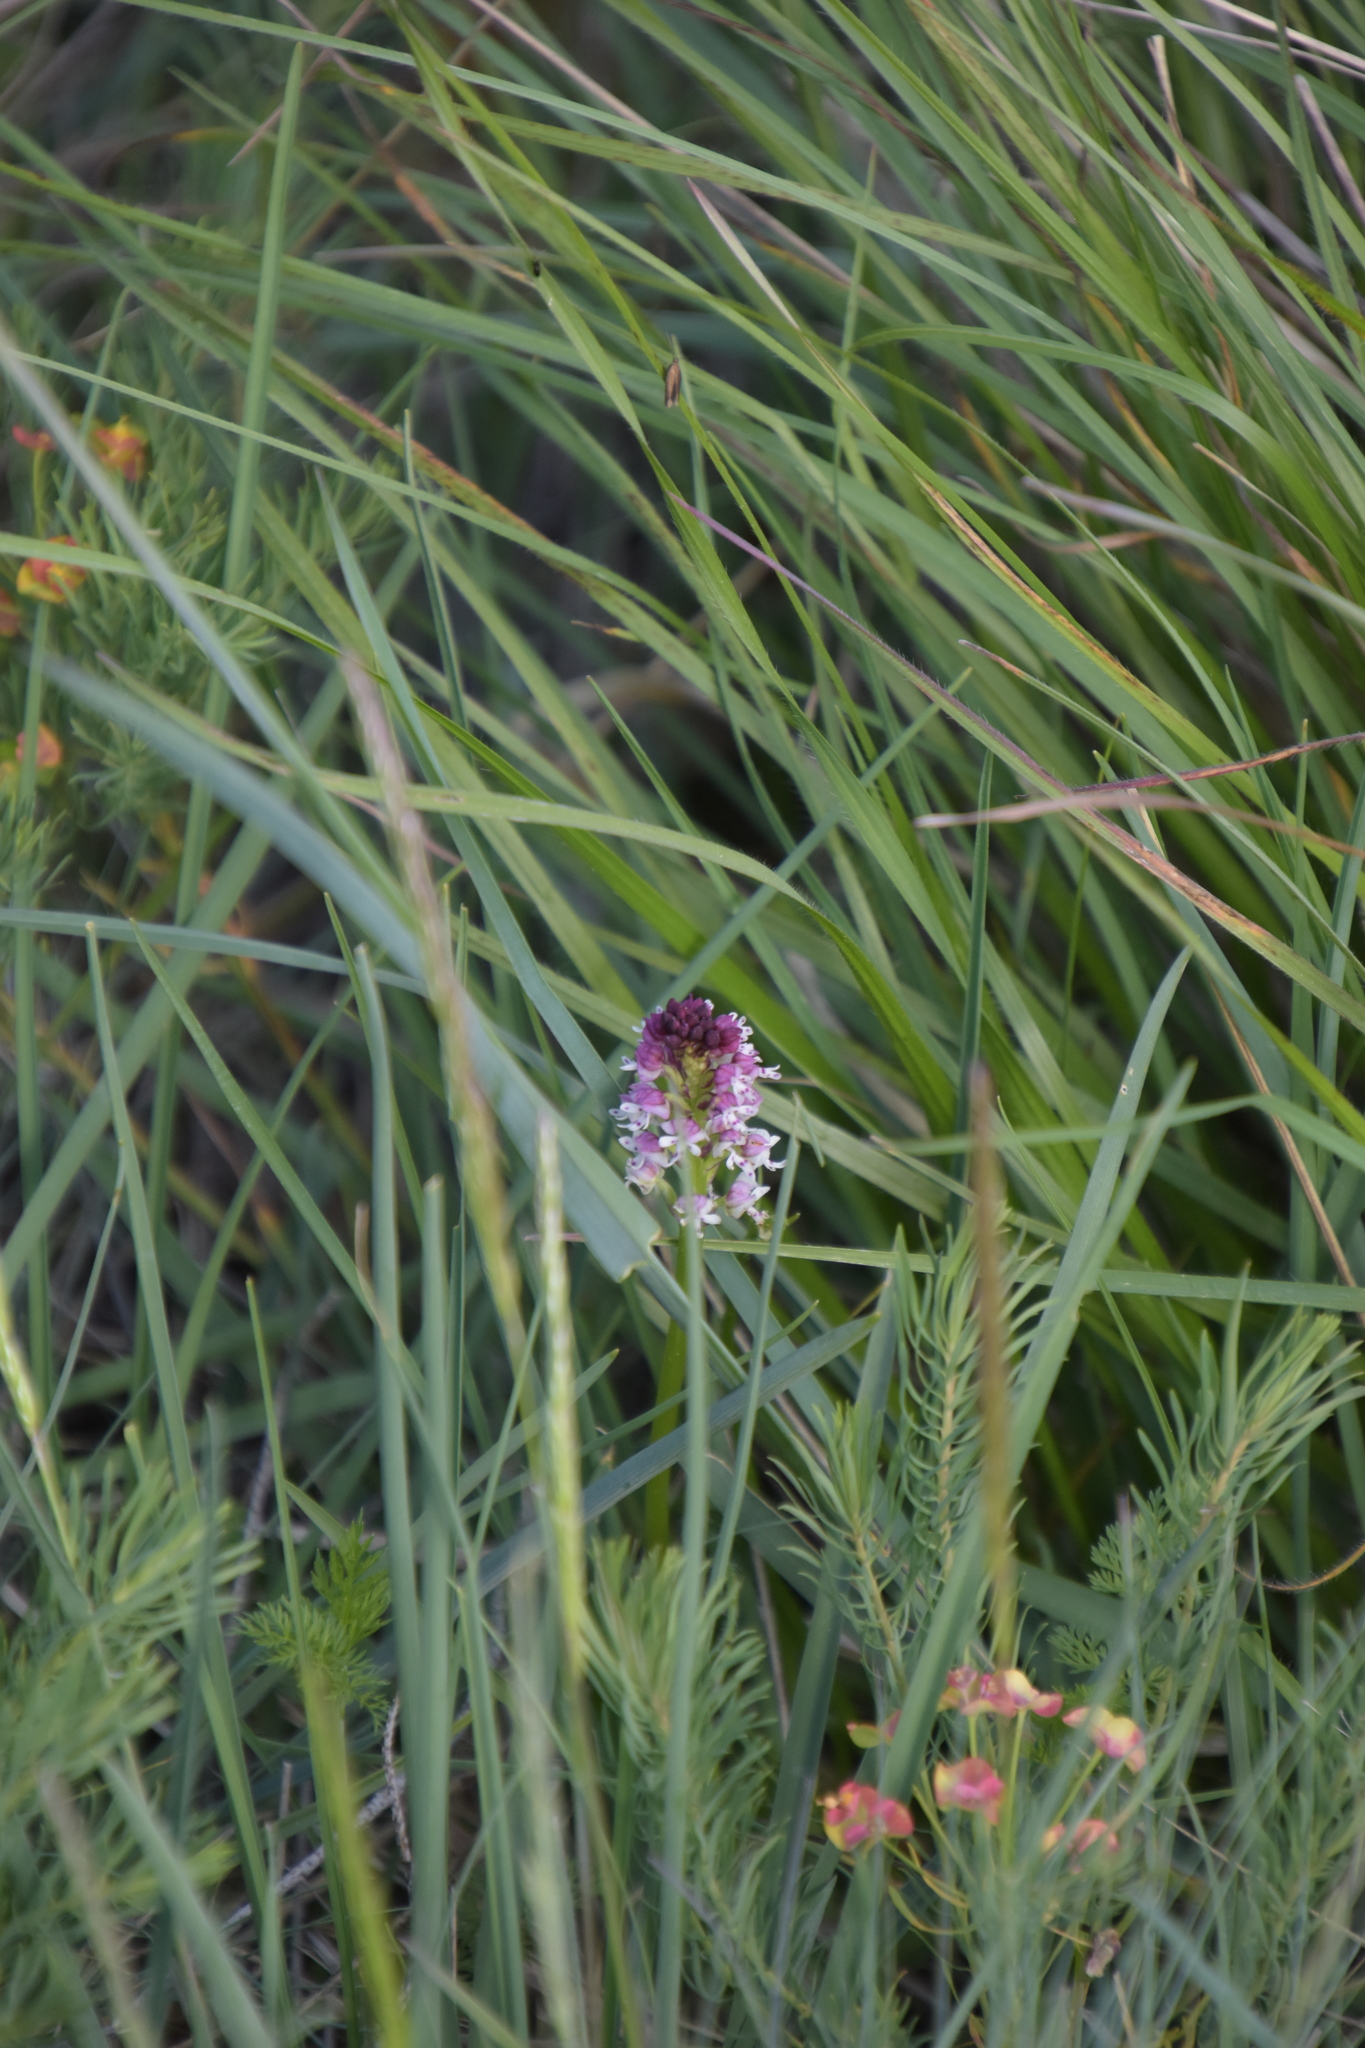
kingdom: Plantae
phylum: Tracheophyta
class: Liliopsida
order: Asparagales
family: Orchidaceae
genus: Neotinea
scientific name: Neotinea ustulata
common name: Burnt orchid
